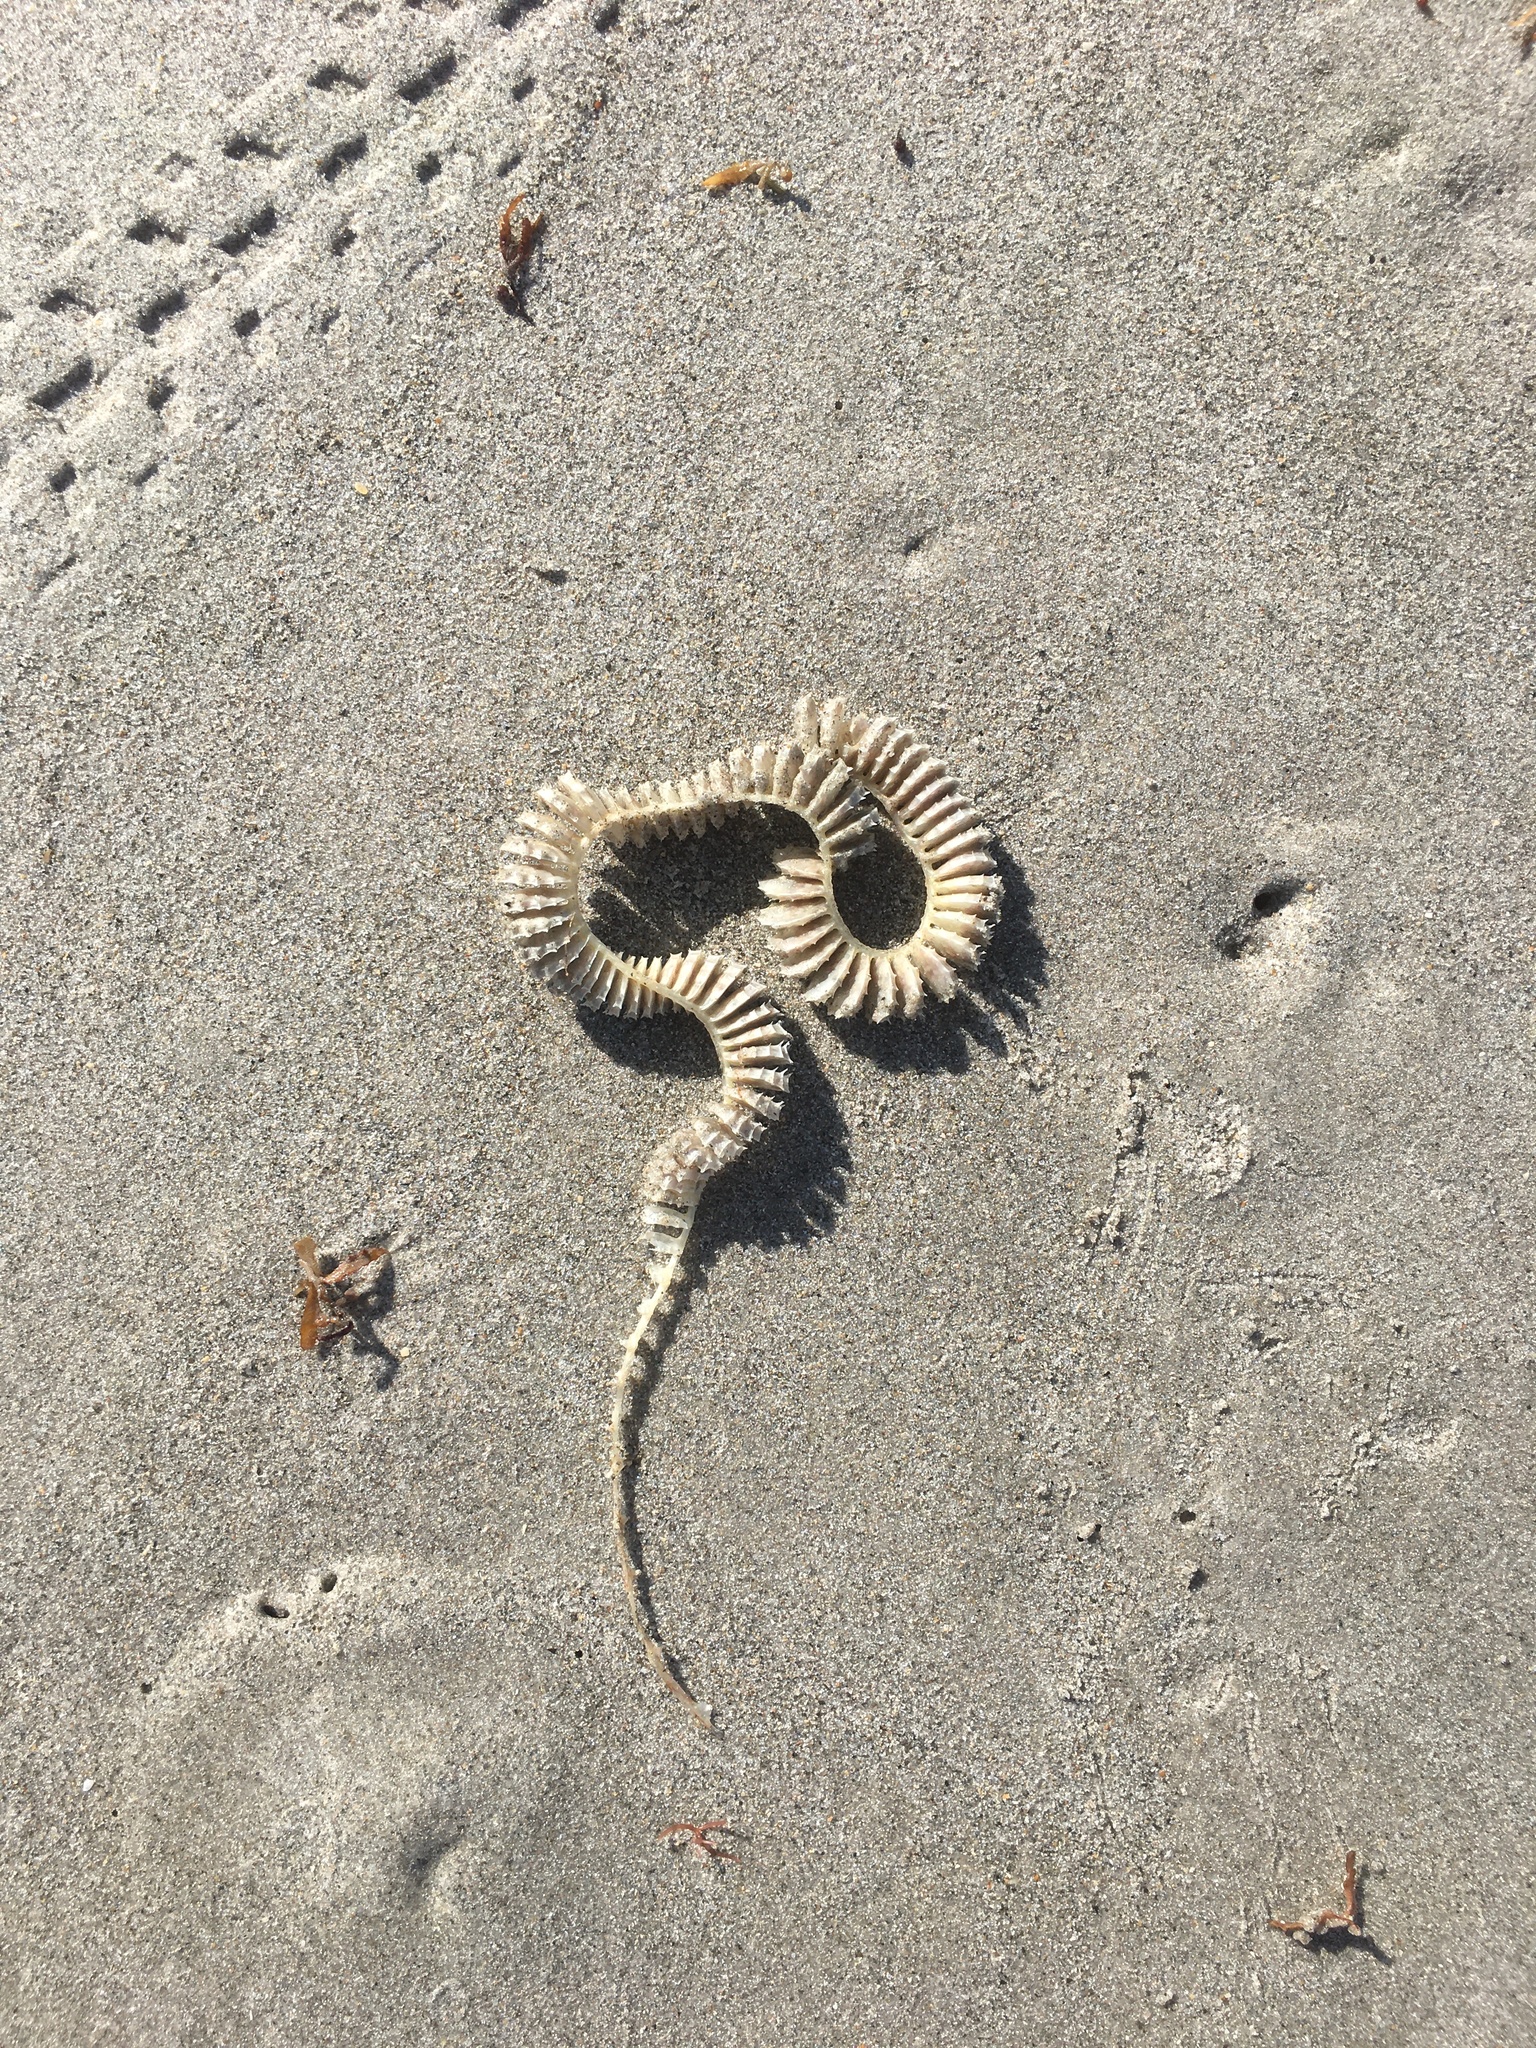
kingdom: Animalia
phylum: Mollusca
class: Gastropoda
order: Neogastropoda
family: Busyconidae
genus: Sinistrofulgur
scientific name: Sinistrofulgur sinistrum
